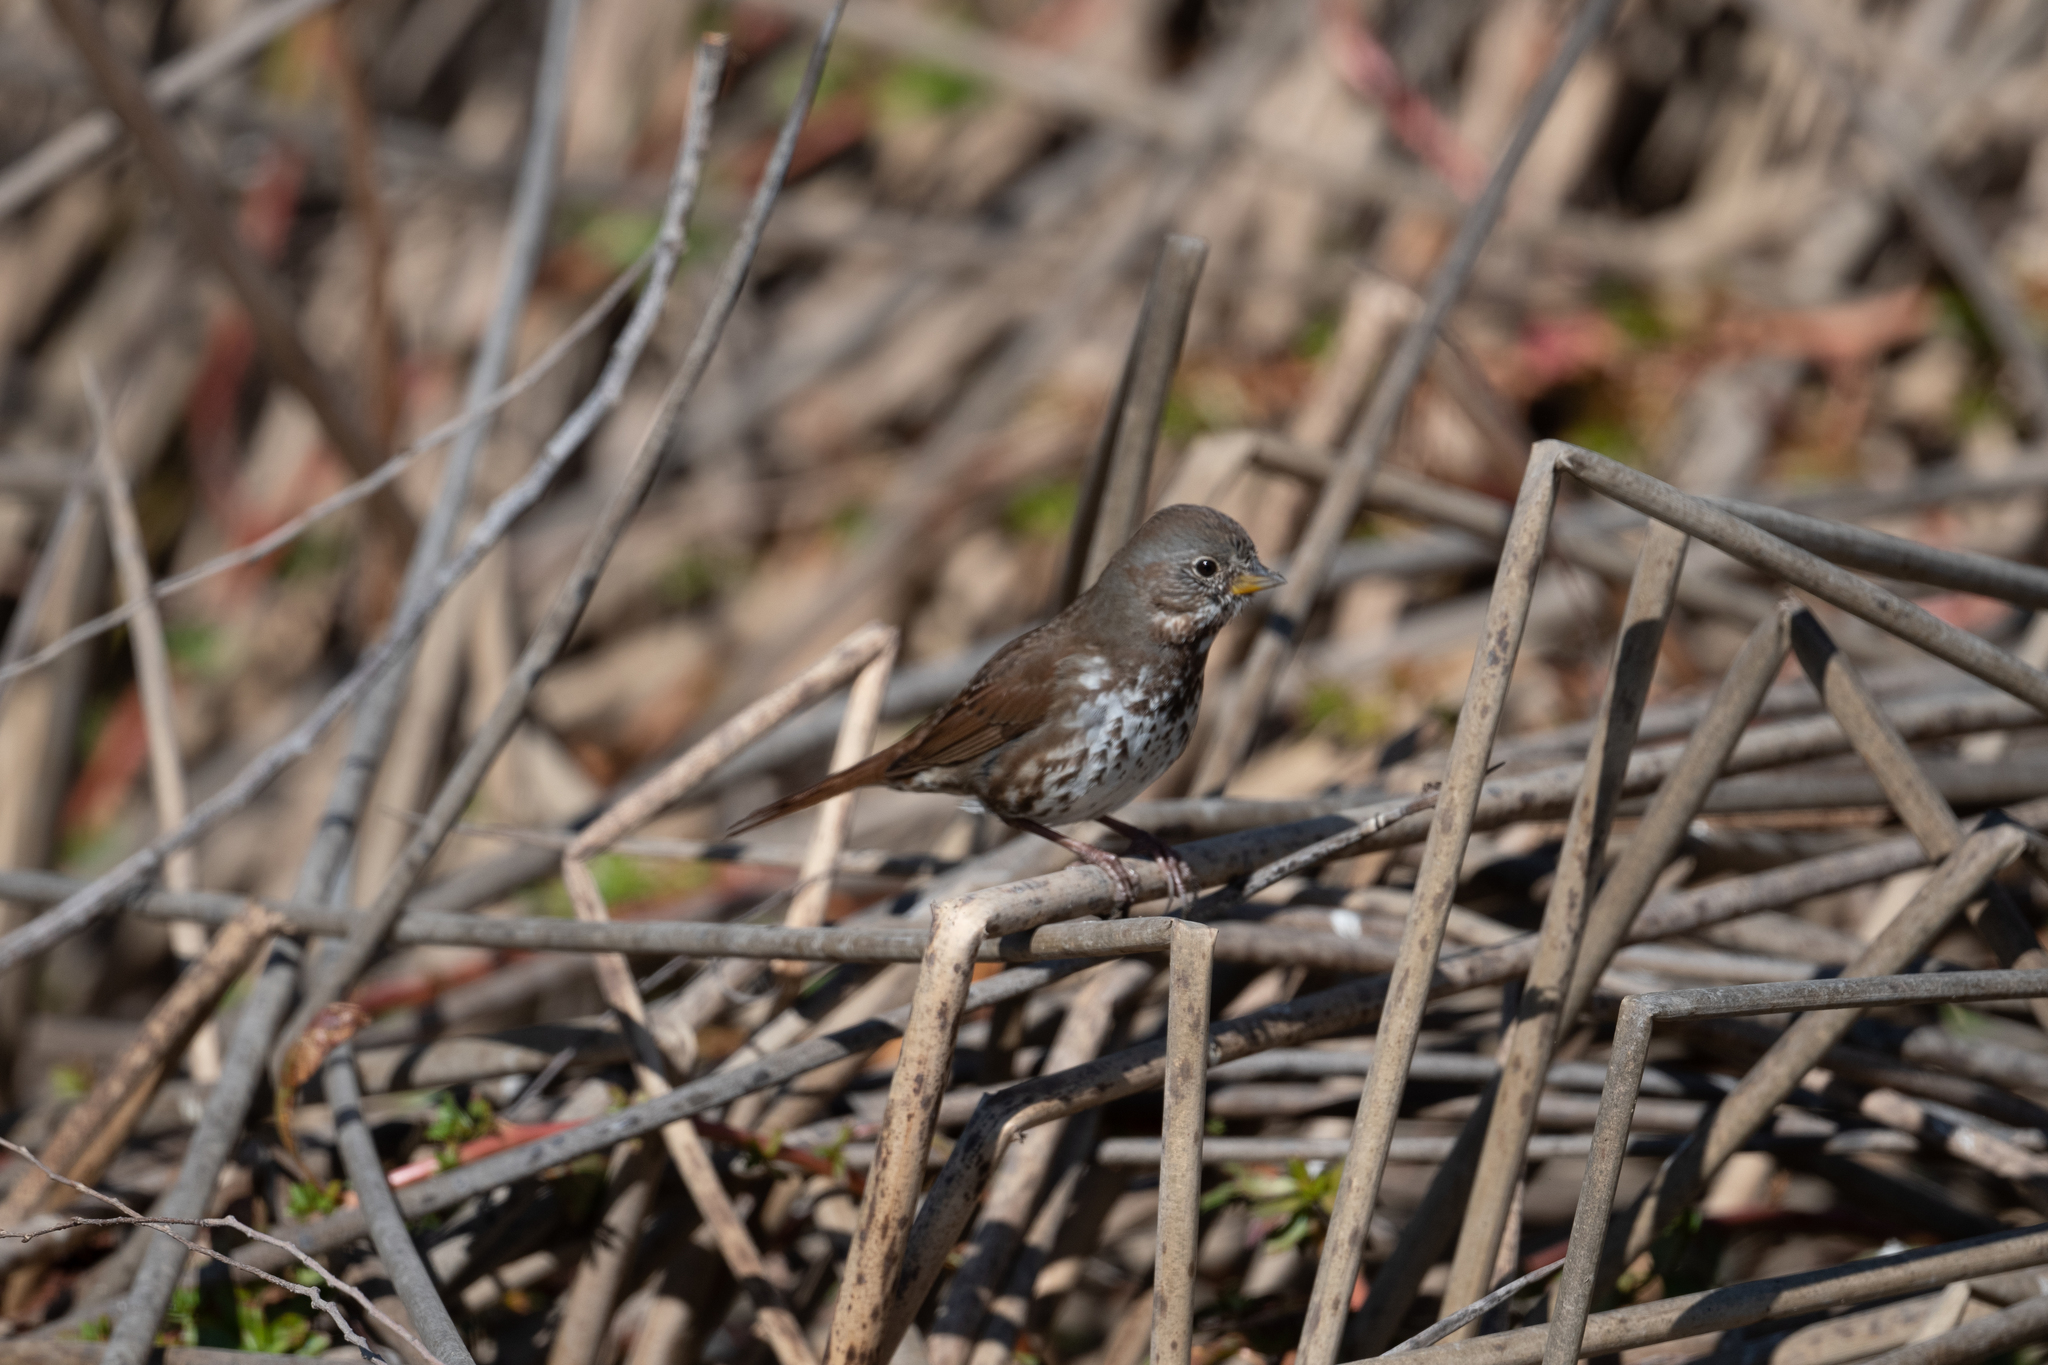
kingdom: Animalia
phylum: Chordata
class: Aves
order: Passeriformes
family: Passerellidae
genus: Passerella
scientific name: Passerella iliaca
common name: Fox sparrow
